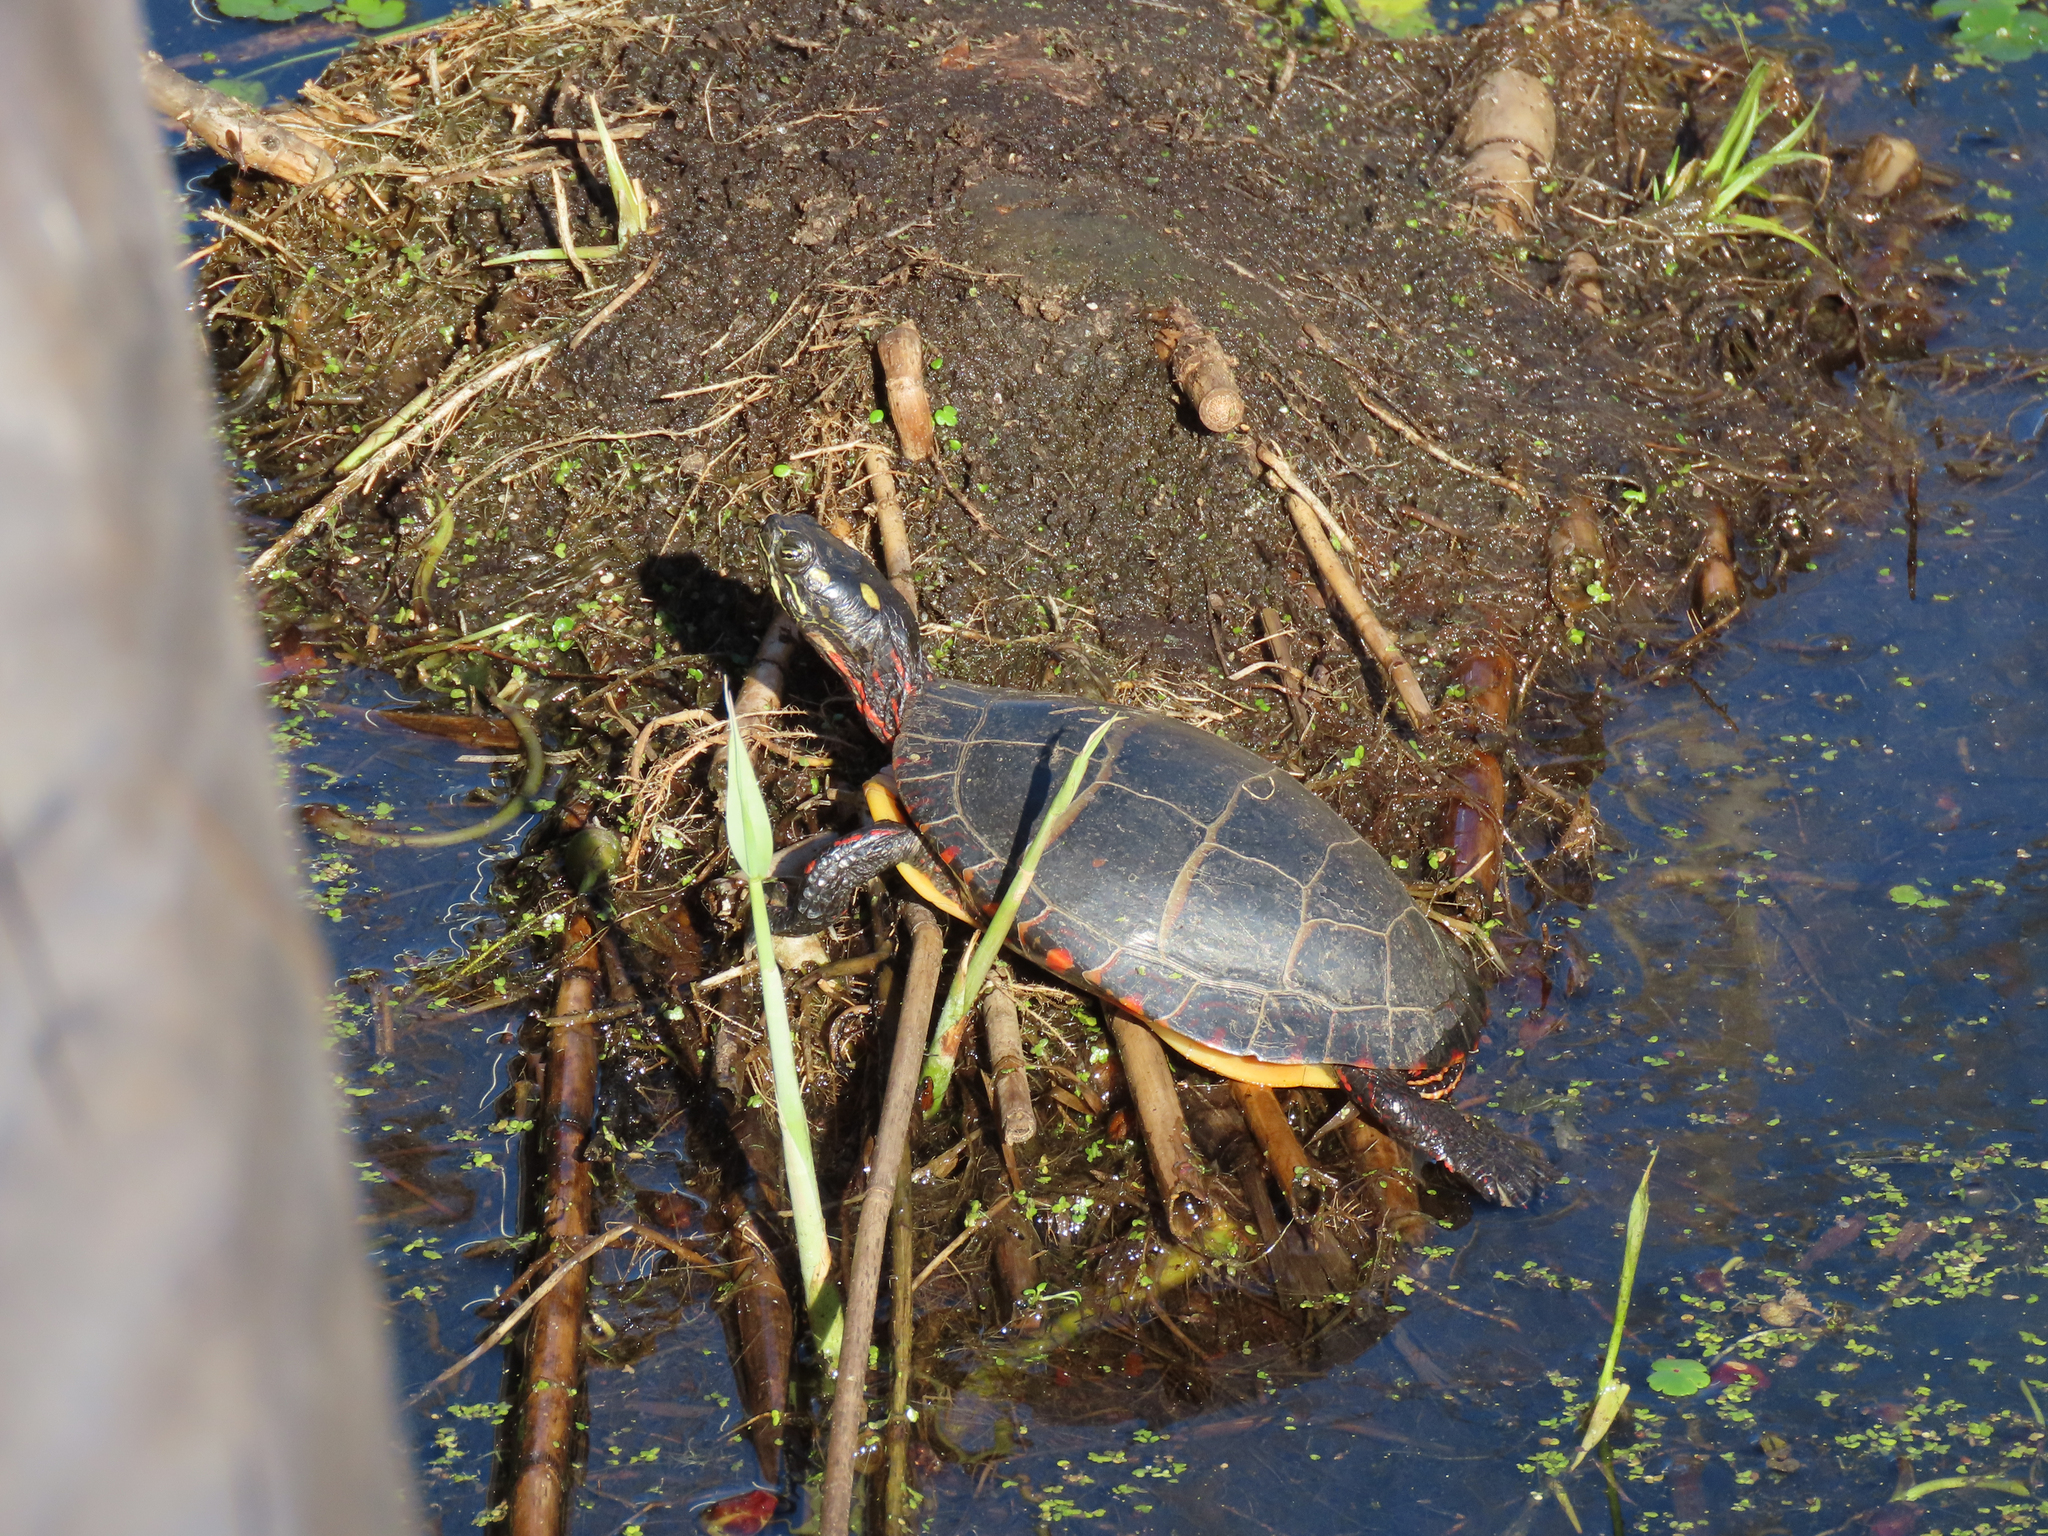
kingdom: Animalia
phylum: Chordata
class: Testudines
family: Emydidae
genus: Chrysemys
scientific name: Chrysemys picta
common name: Painted turtle
